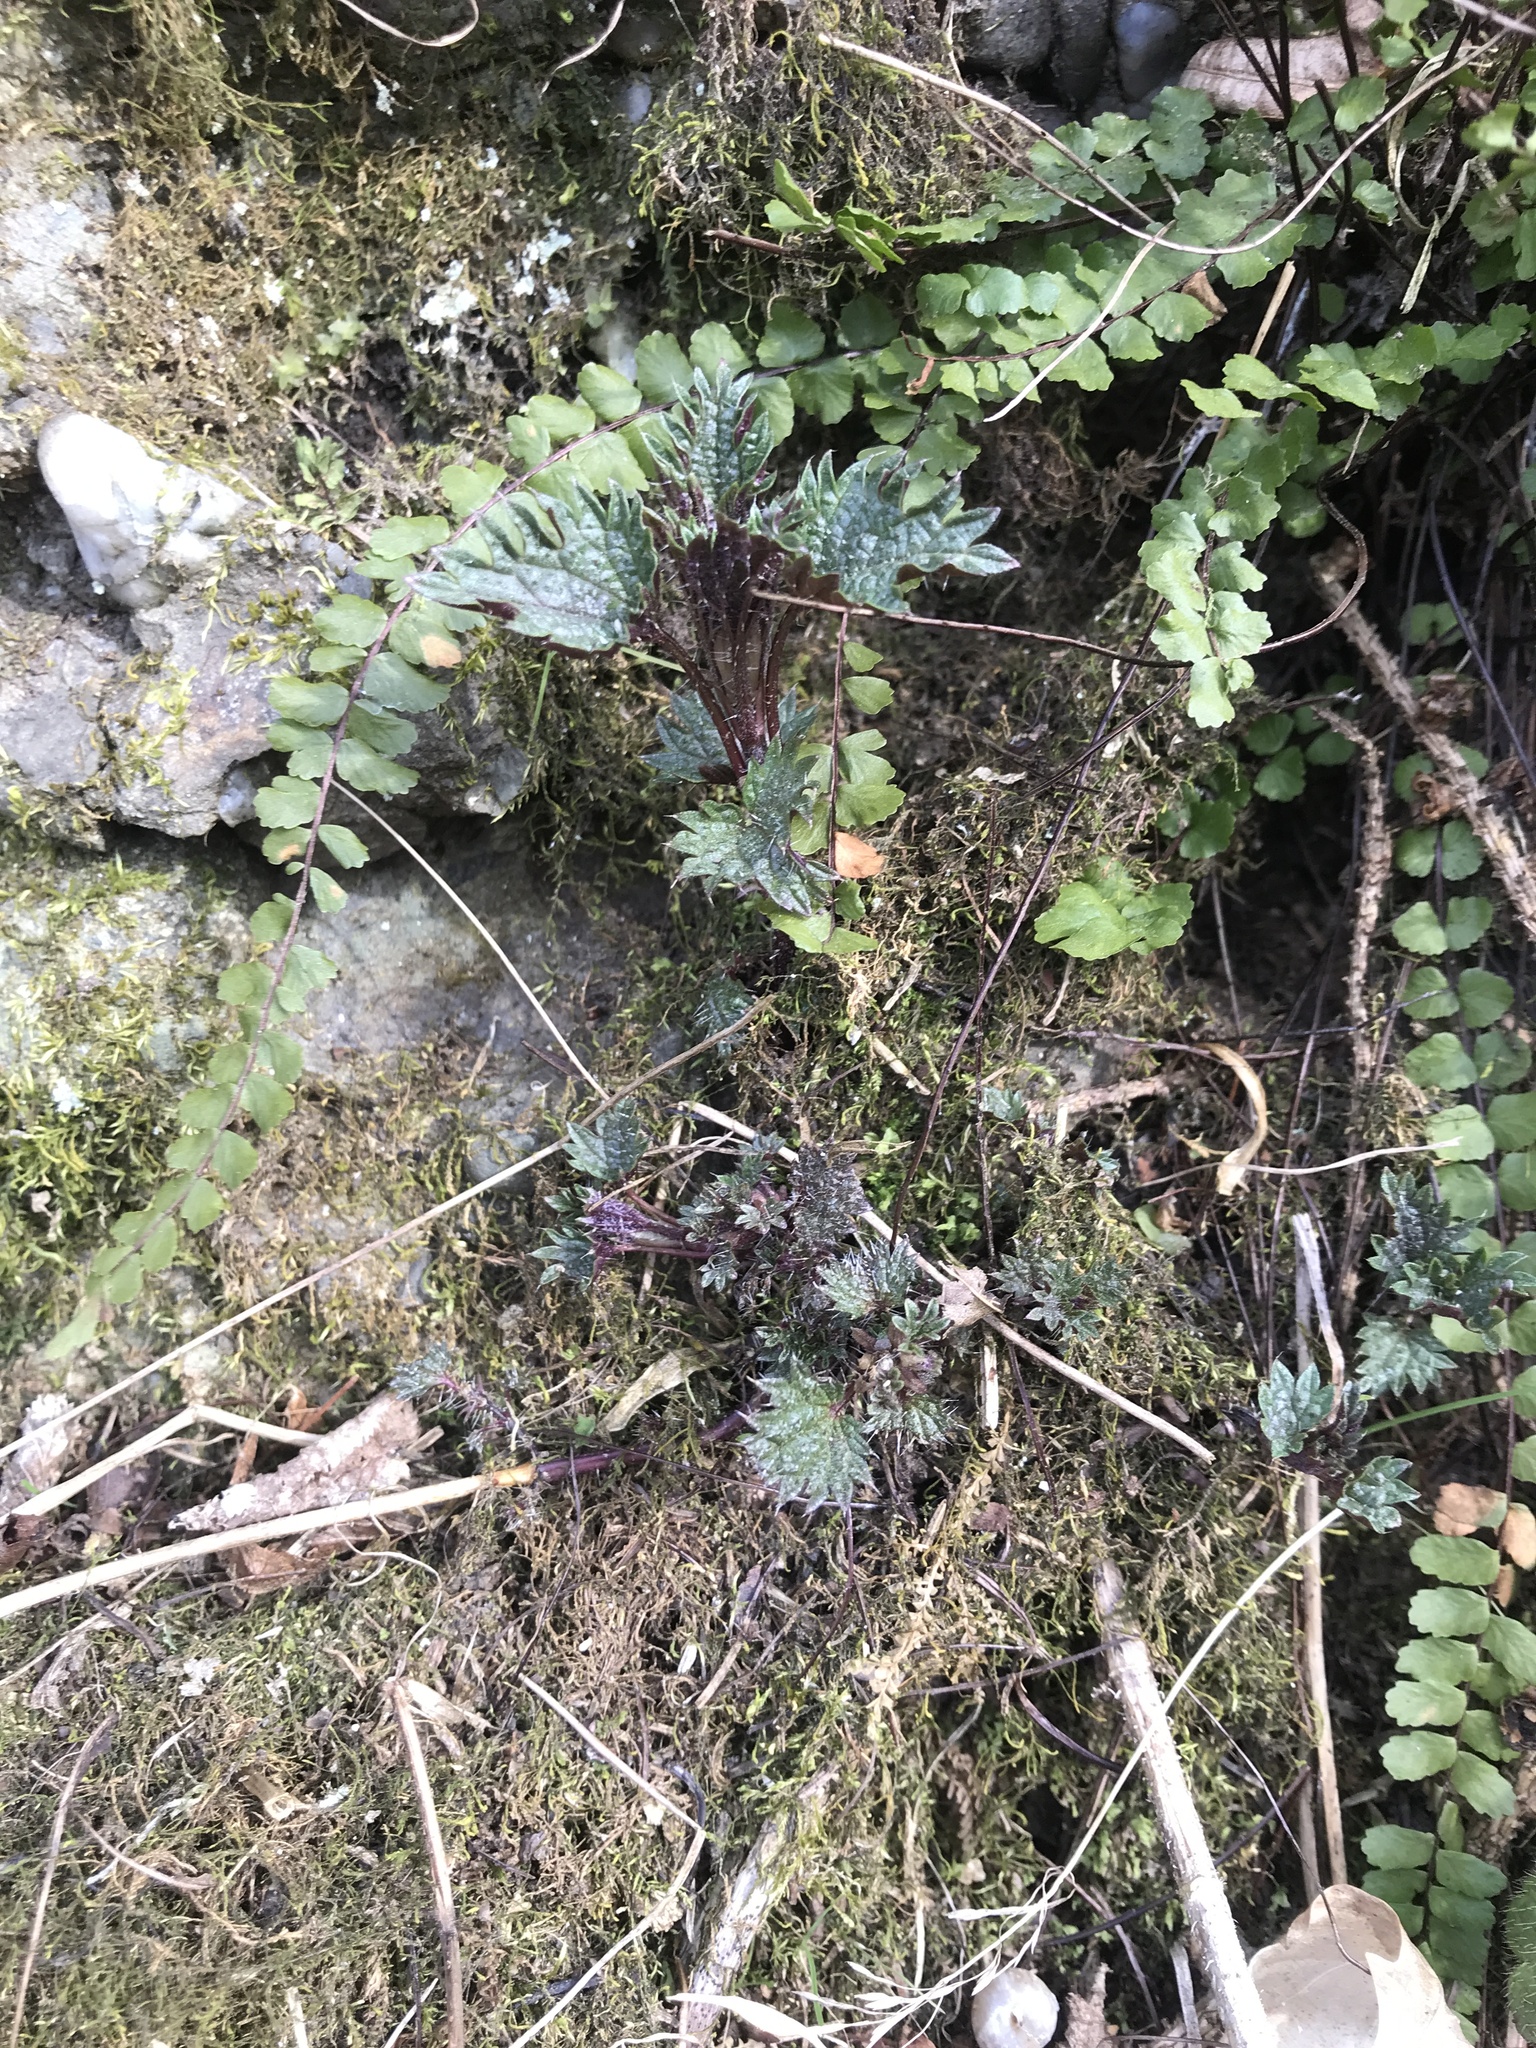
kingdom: Plantae
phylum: Tracheophyta
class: Magnoliopsida
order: Rosales
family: Urticaceae
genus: Urtica
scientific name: Urtica dioica
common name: Common nettle
